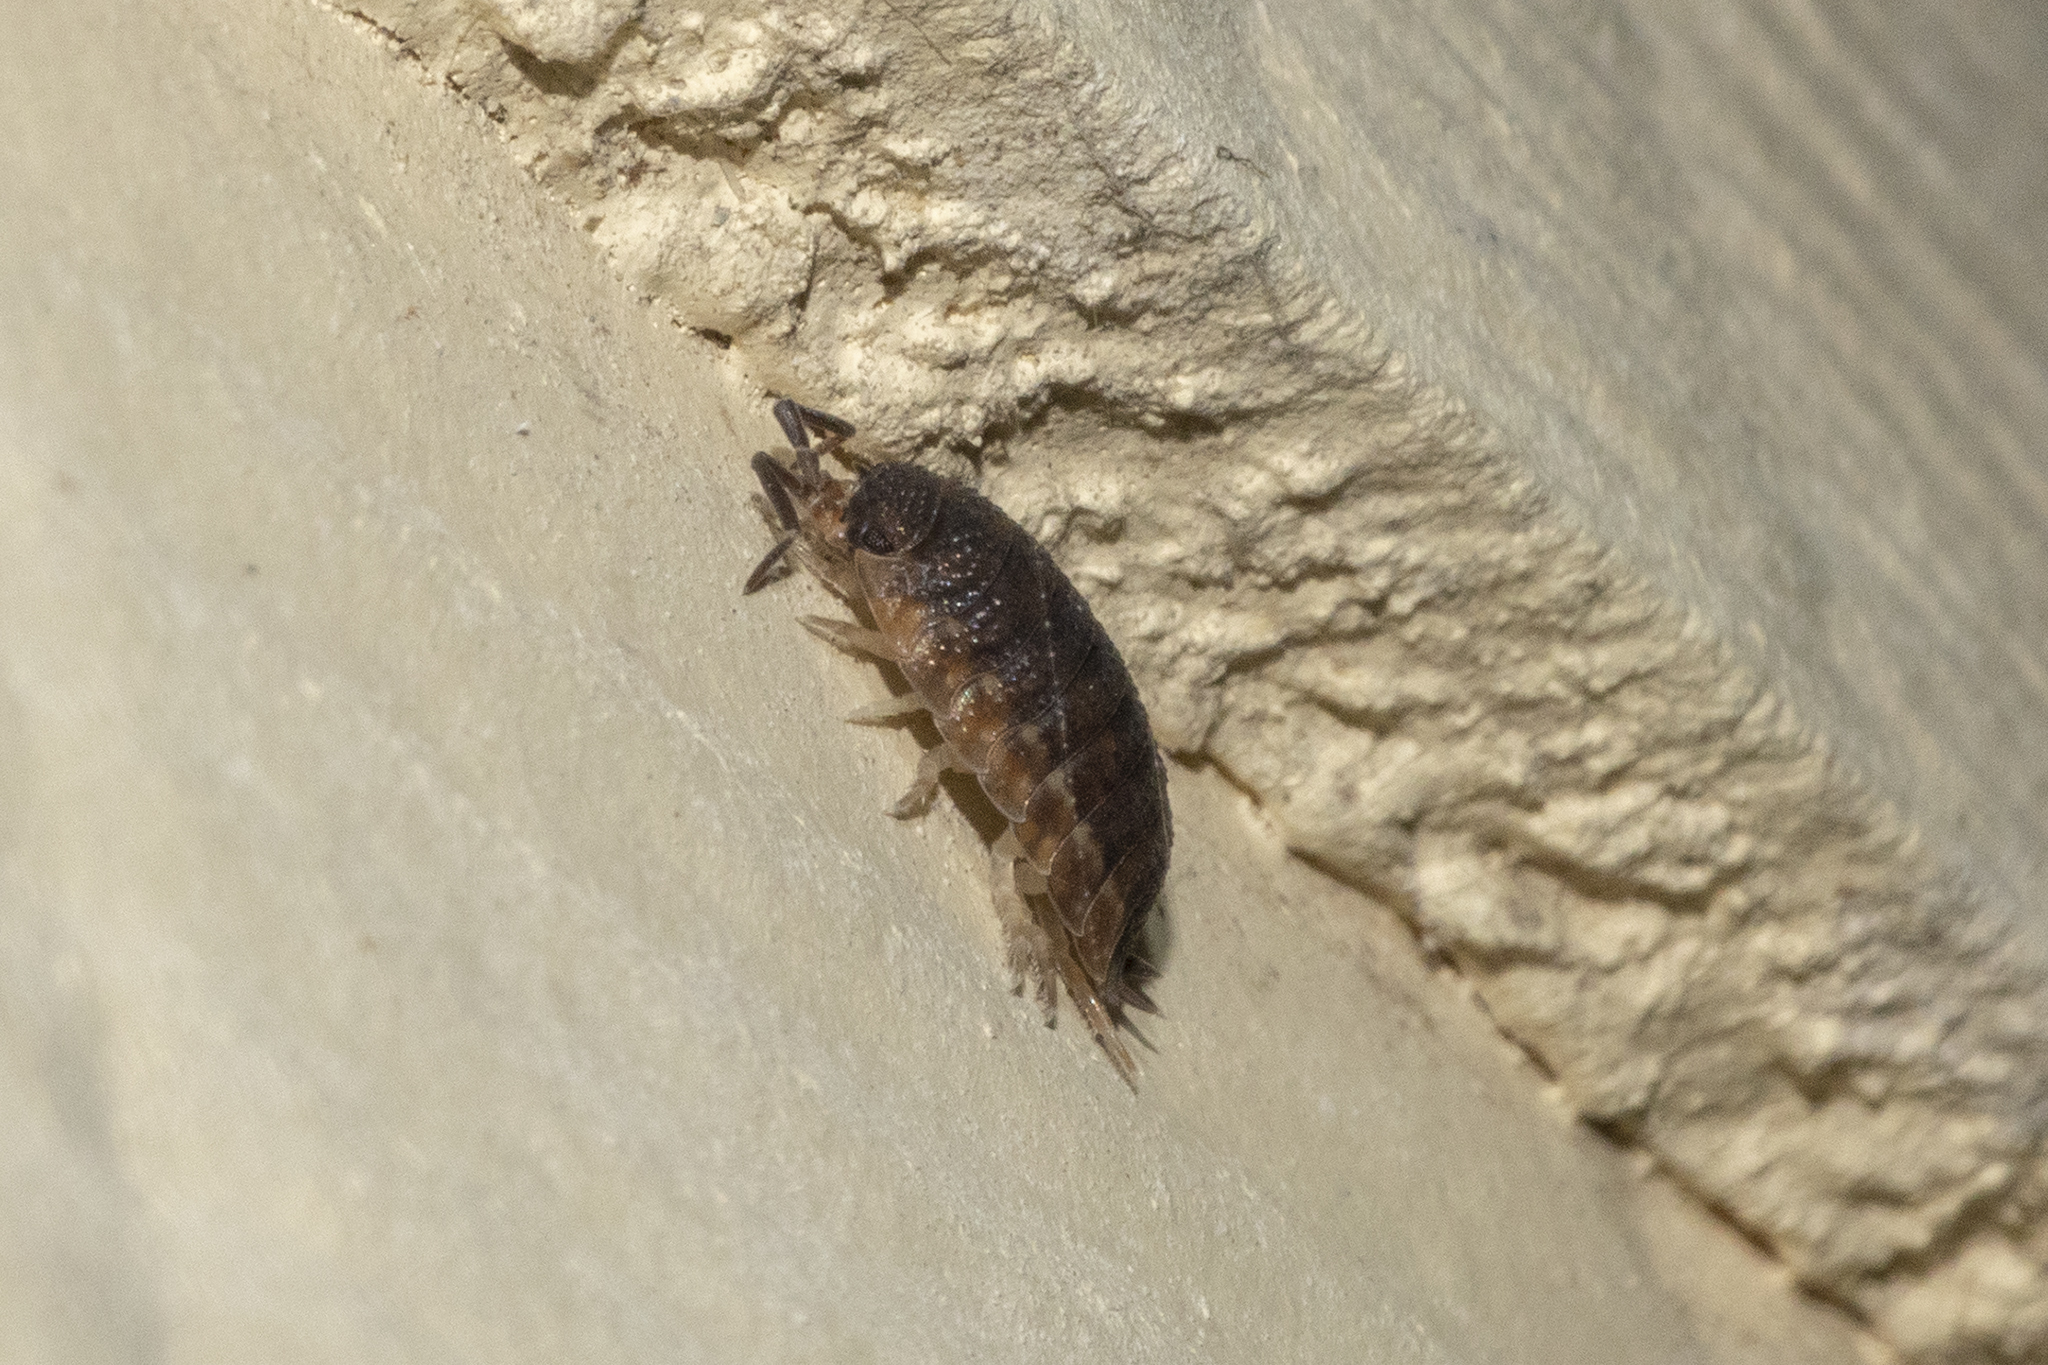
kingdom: Animalia
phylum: Arthropoda
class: Malacostraca
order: Isopoda
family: Porcellionidae
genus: Porcellio
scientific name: Porcellio scaber
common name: Common rough woodlouse
